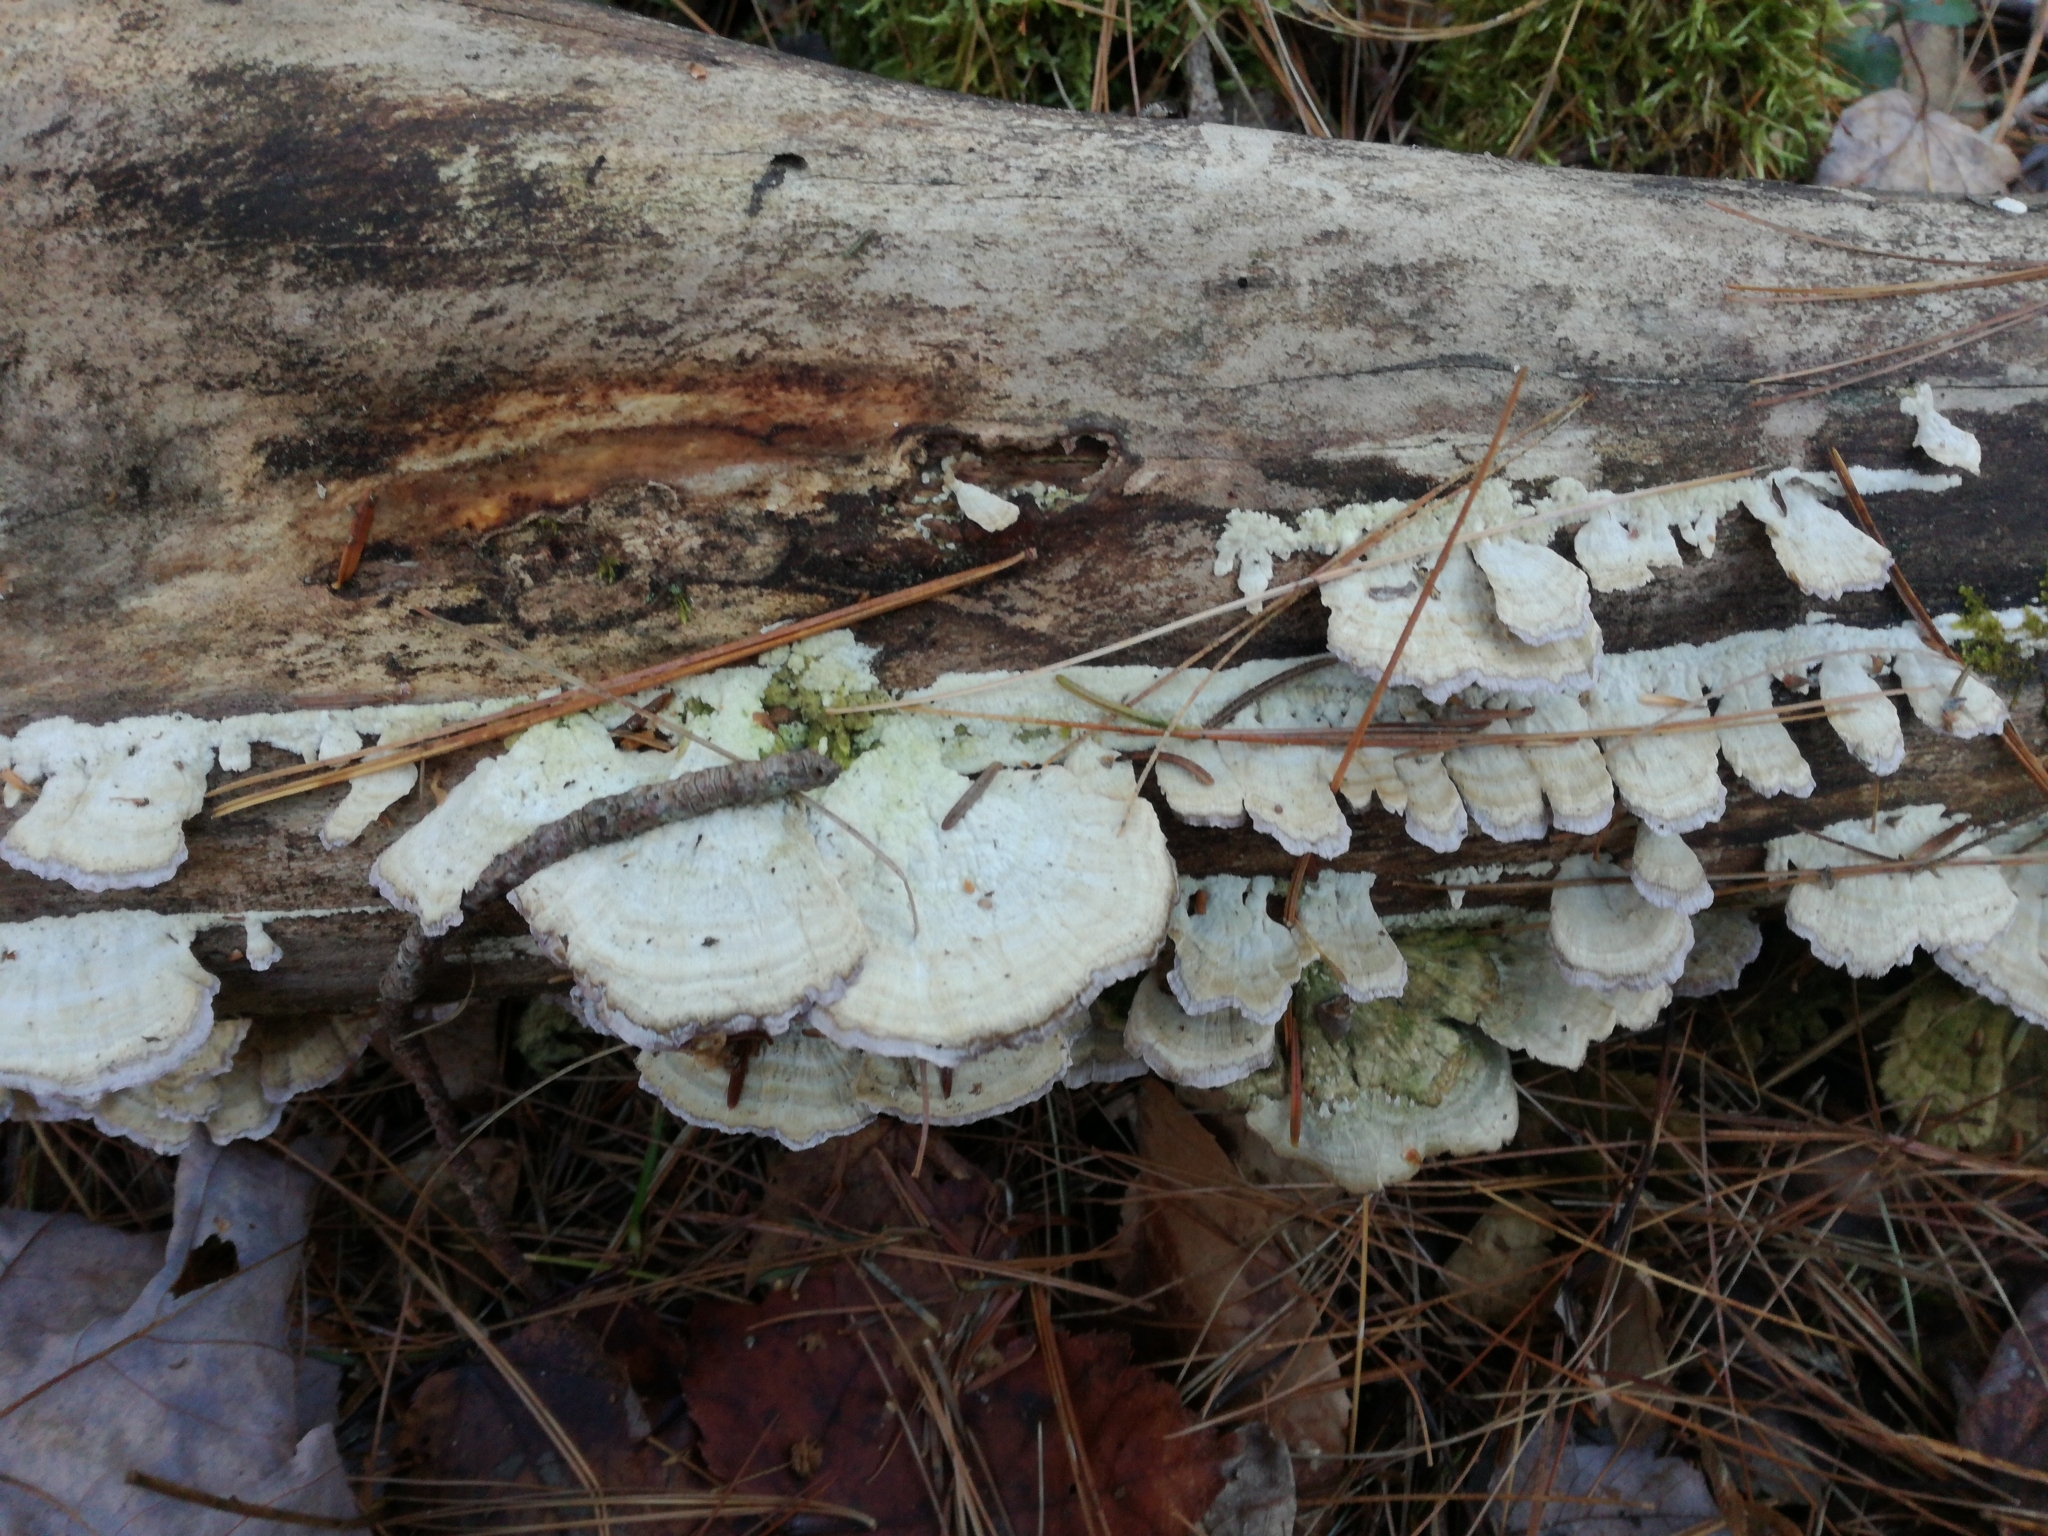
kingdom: Fungi
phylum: Basidiomycota
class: Agaricomycetes
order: Hymenochaetales
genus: Trichaptum
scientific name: Trichaptum abietinum
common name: Purplepore bracket
